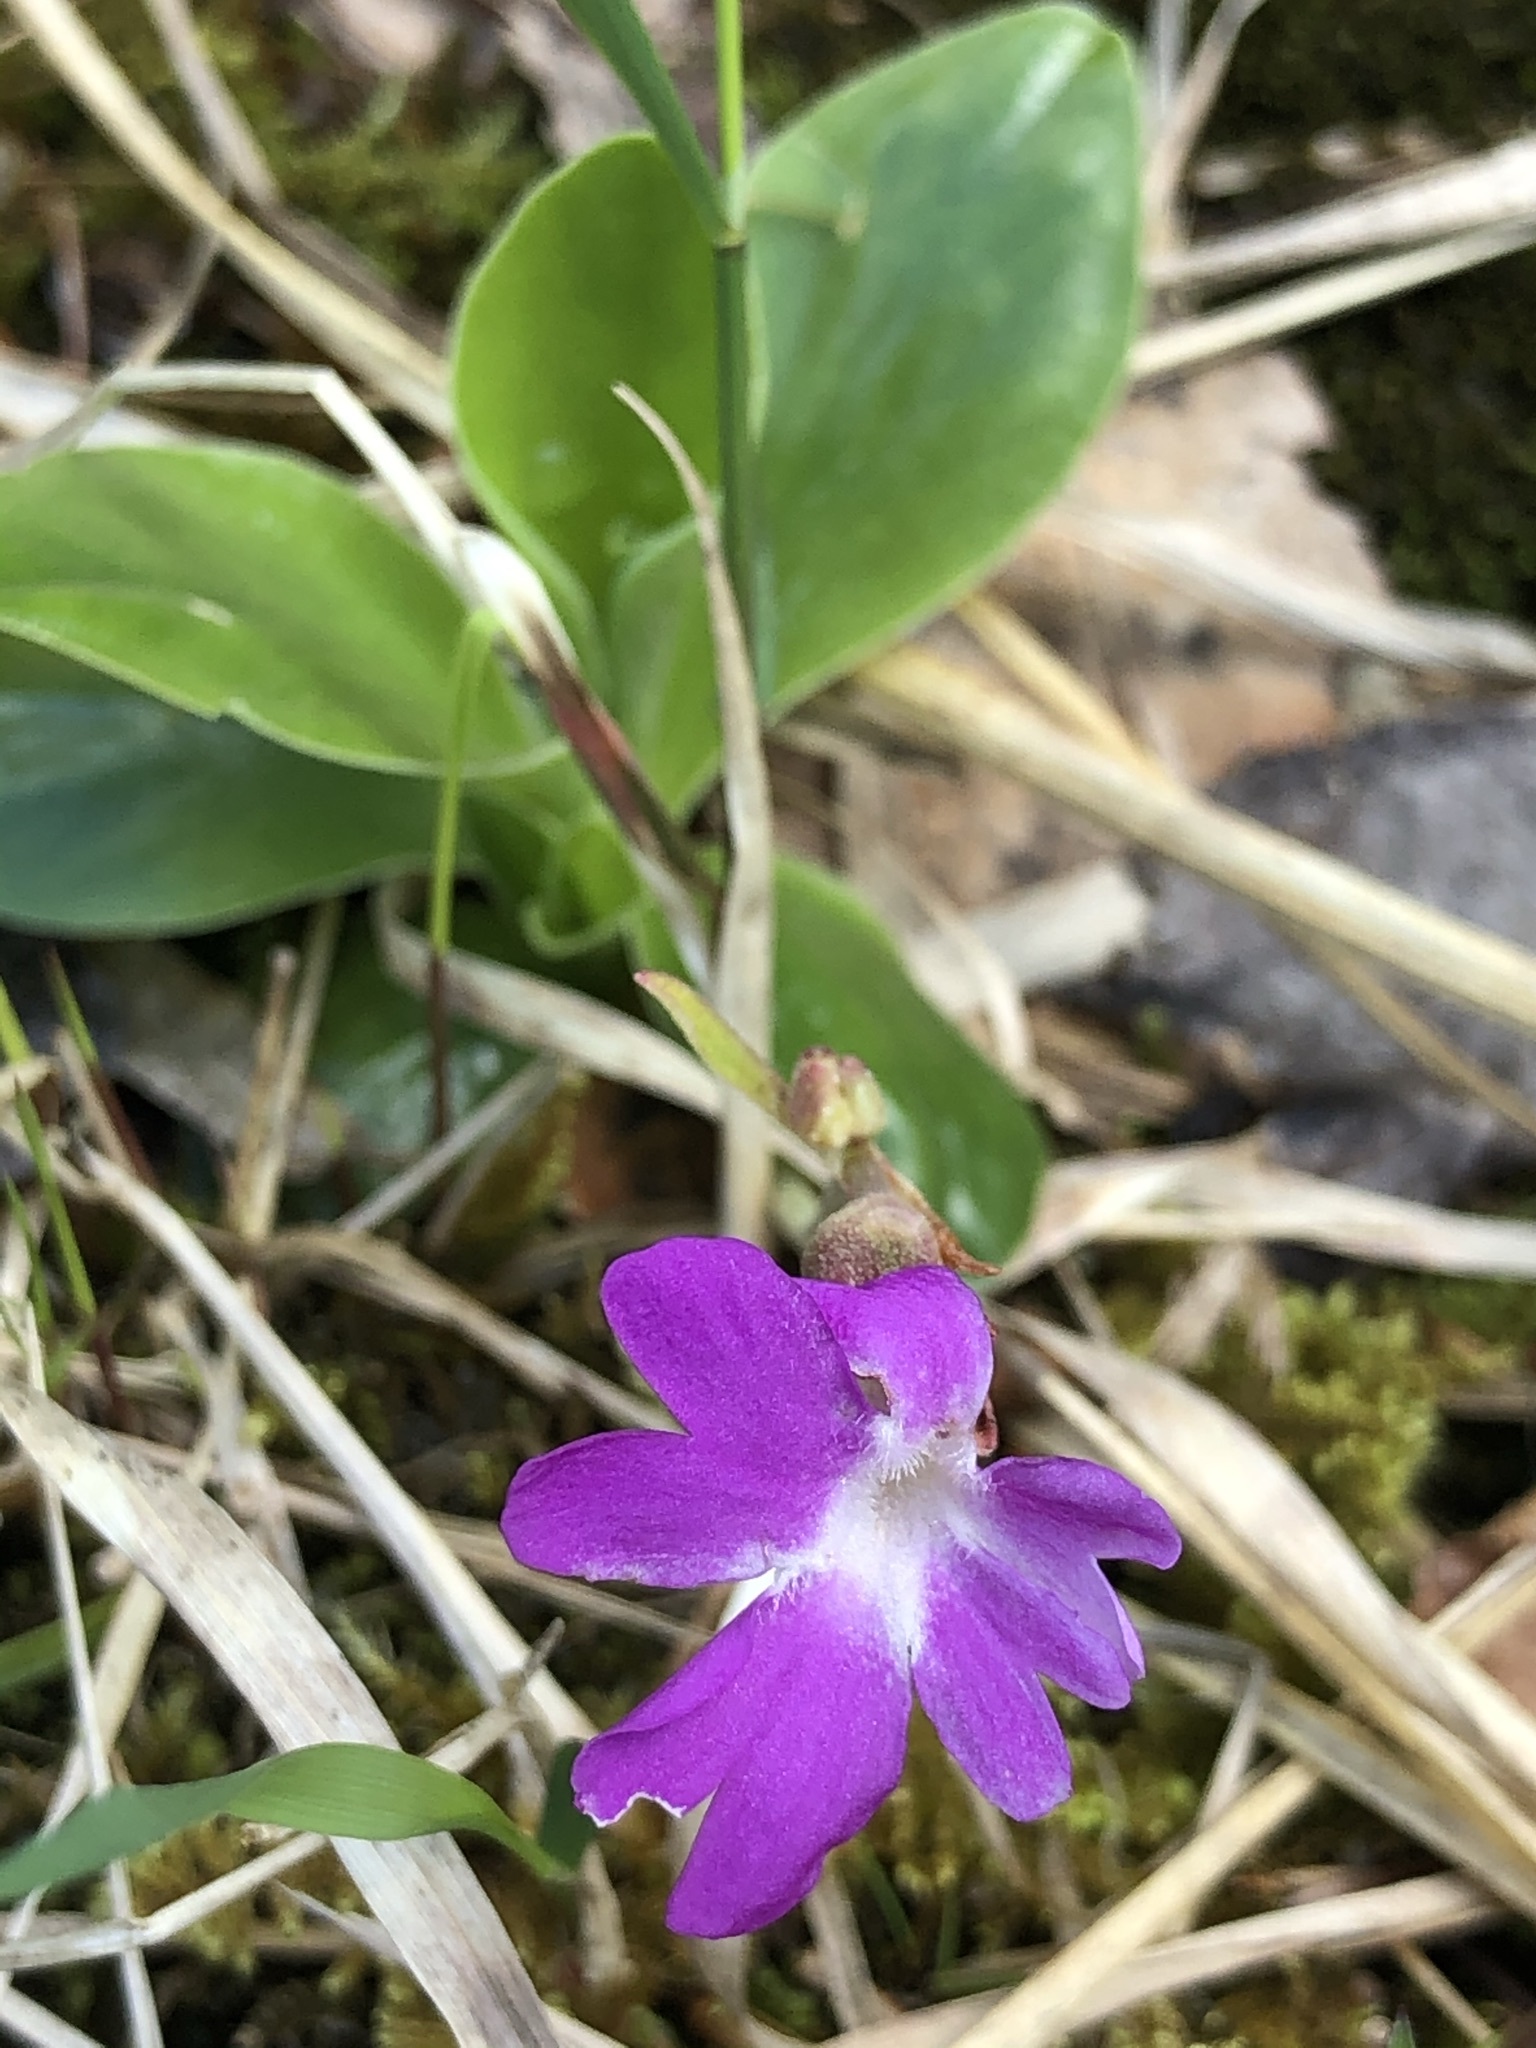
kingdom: Plantae
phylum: Tracheophyta
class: Magnoliopsida
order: Ericales
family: Primulaceae
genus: Primula
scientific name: Primula clusiana
